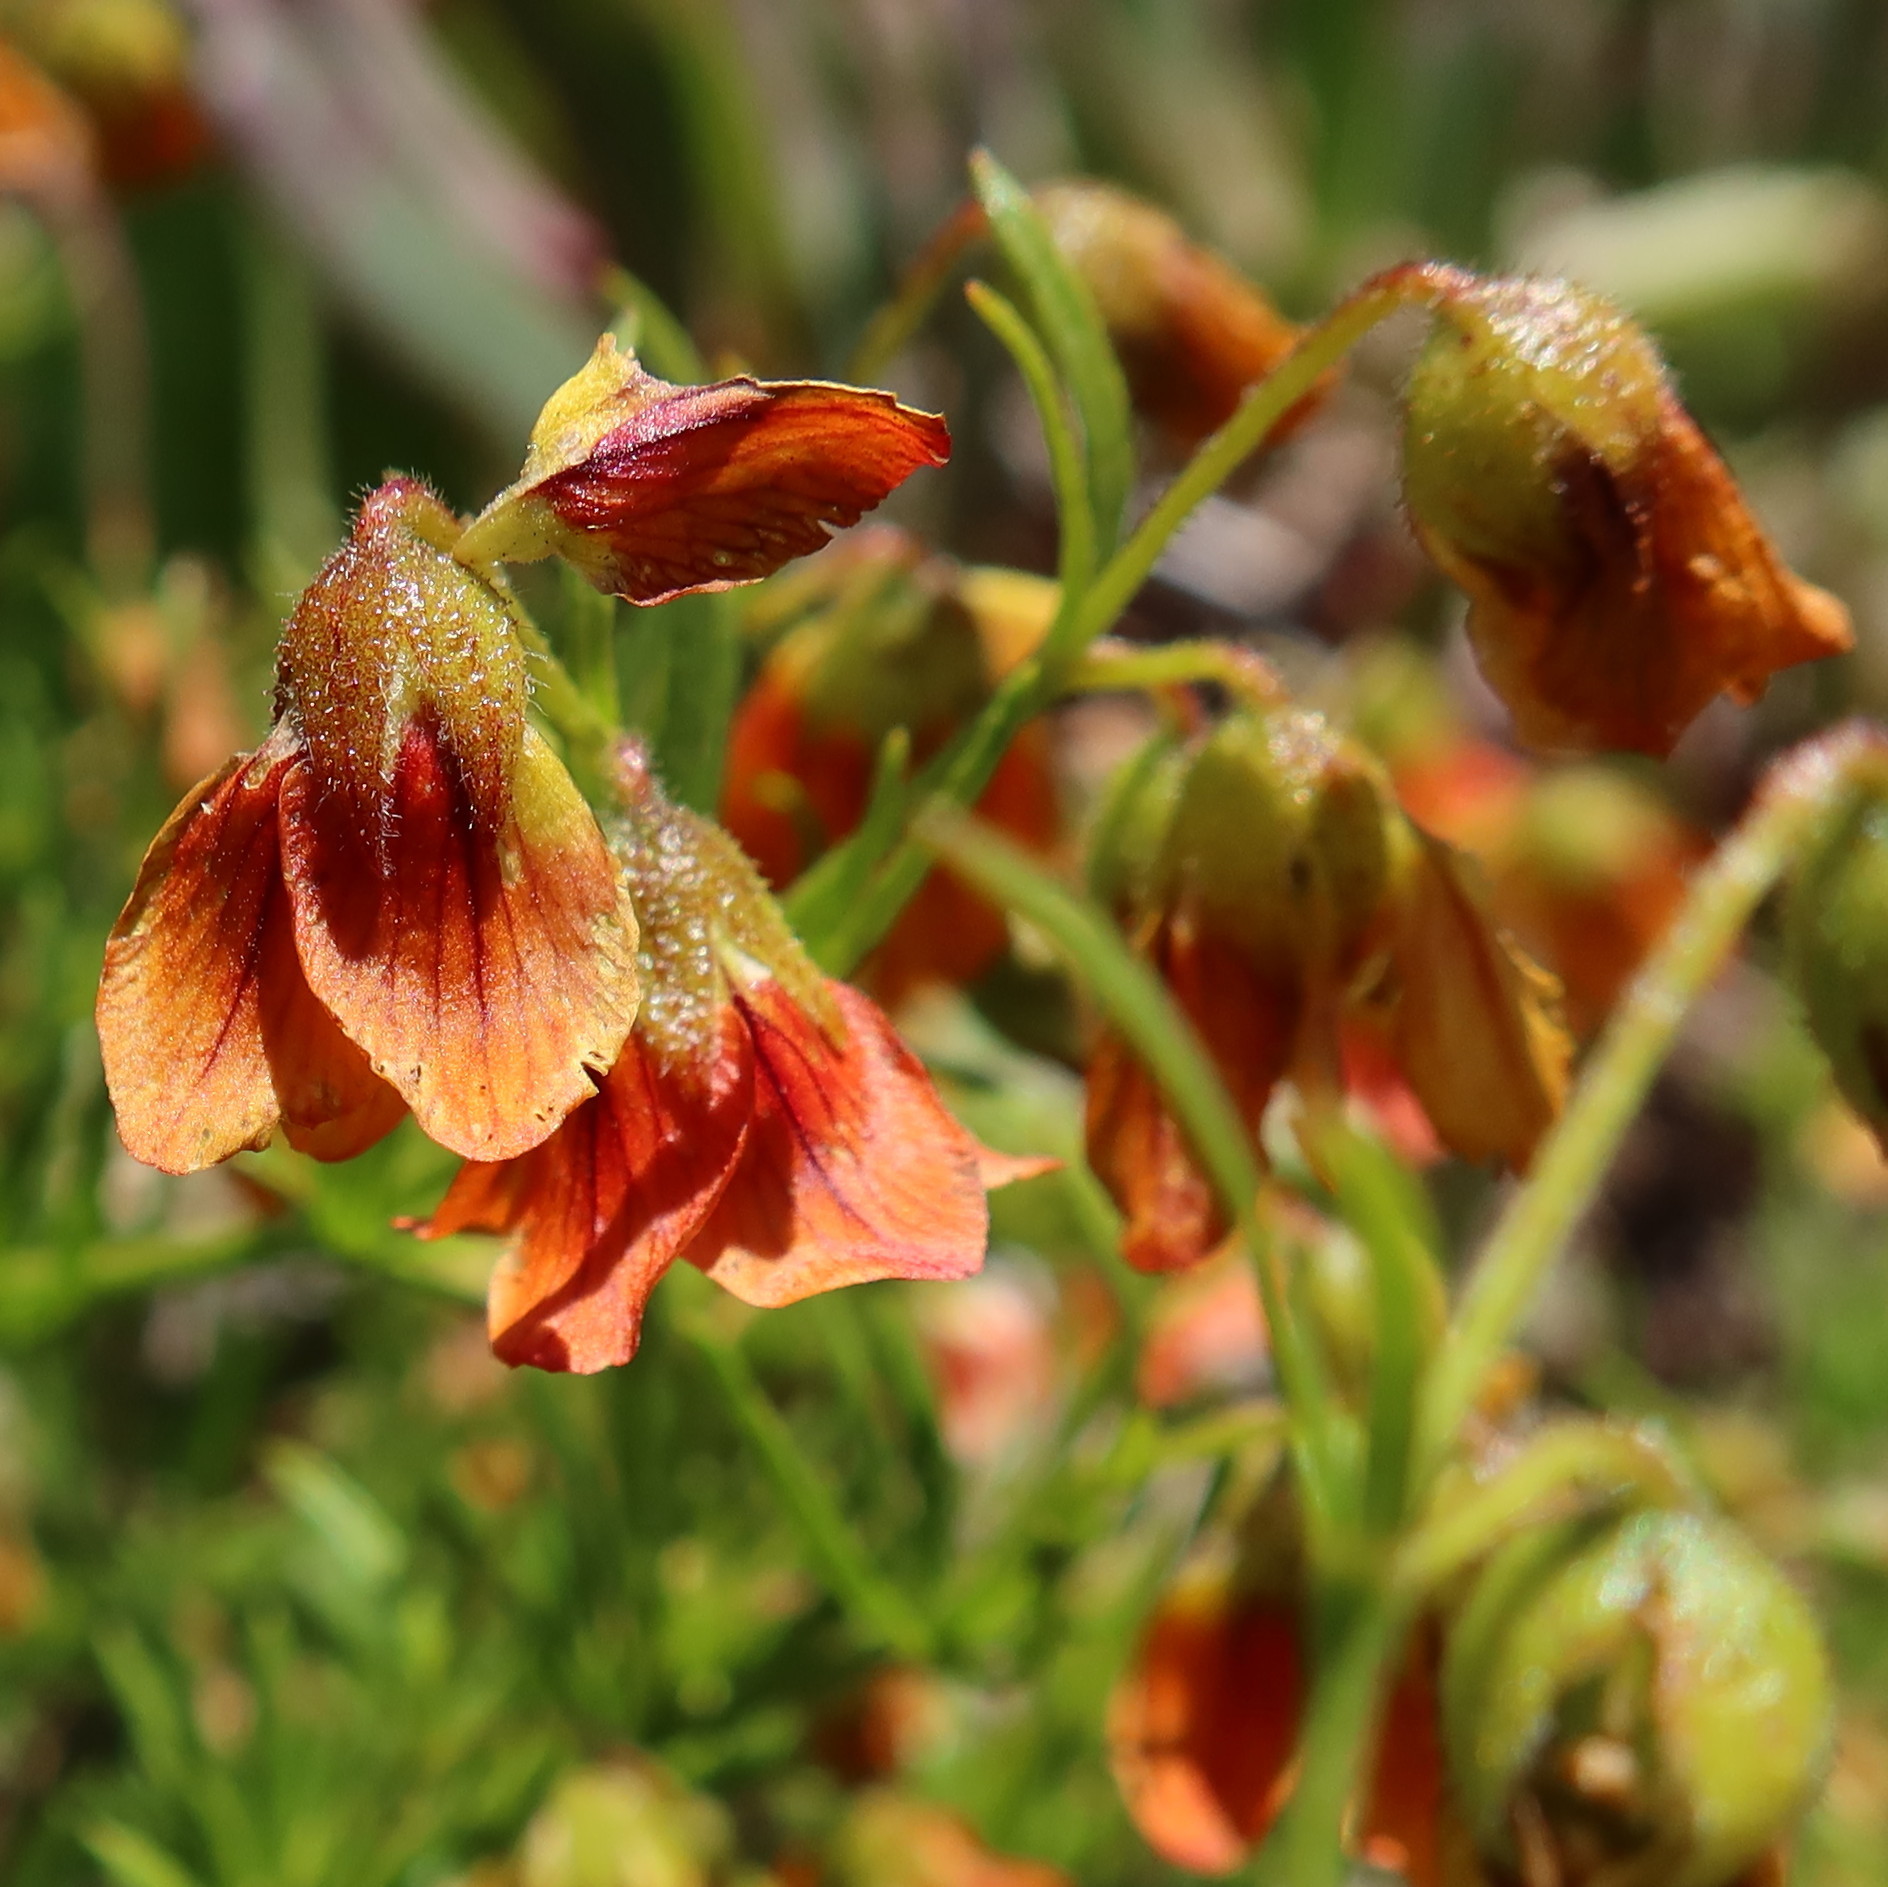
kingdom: Plantae
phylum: Tracheophyta
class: Magnoliopsida
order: Malvales
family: Malvaceae
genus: Hermannia
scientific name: Hermannia
